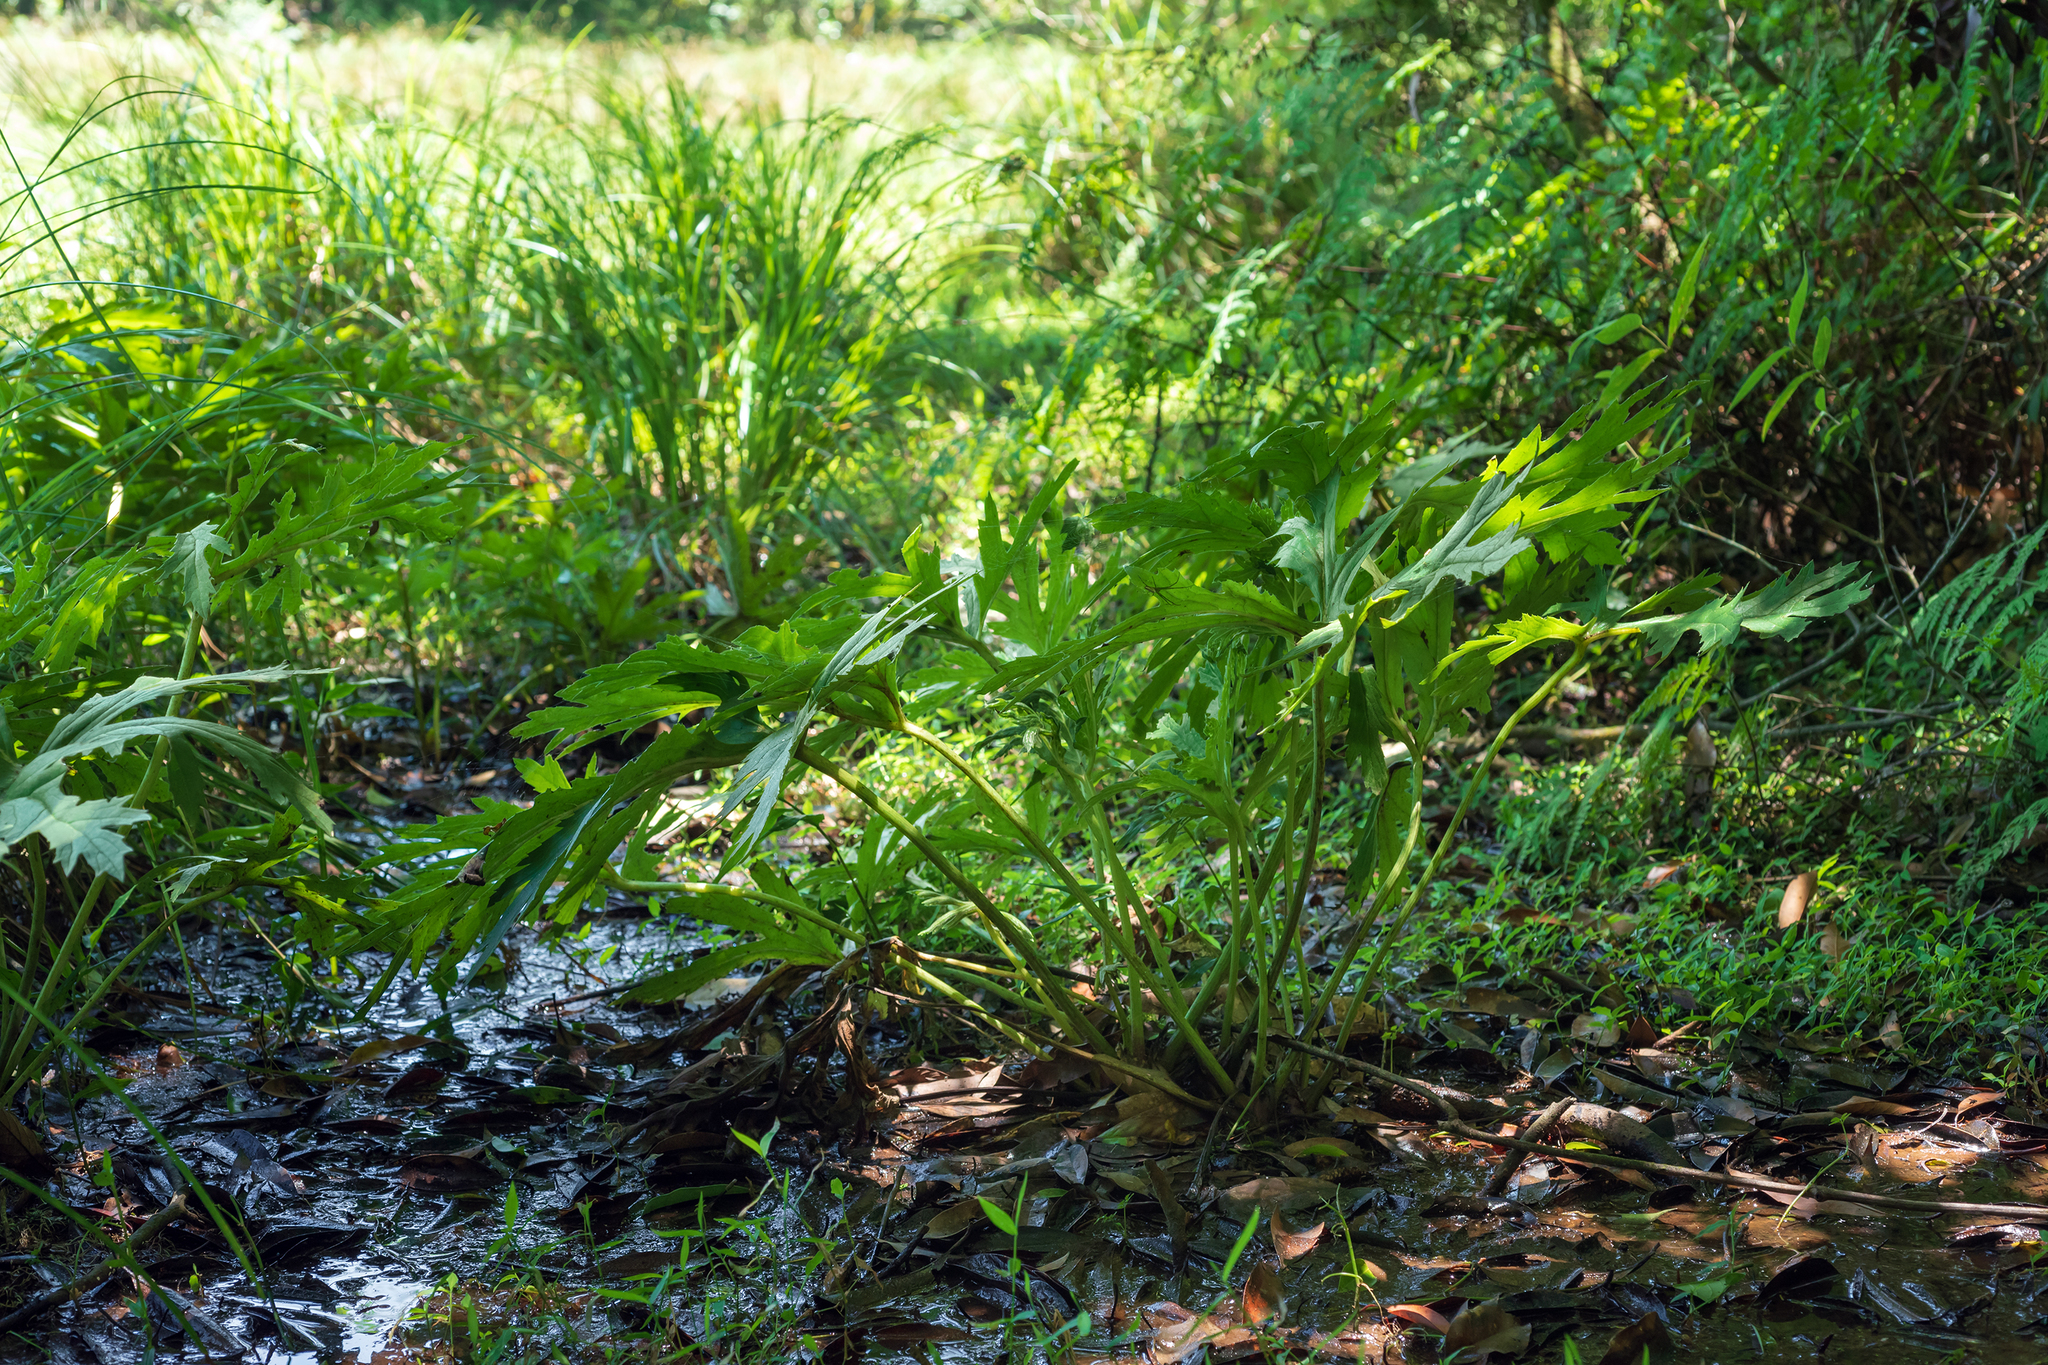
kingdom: Plantae
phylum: Tracheophyta
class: Magnoliopsida
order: Asterales
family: Asteraceae
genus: Ligularia
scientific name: Ligularia japonica
